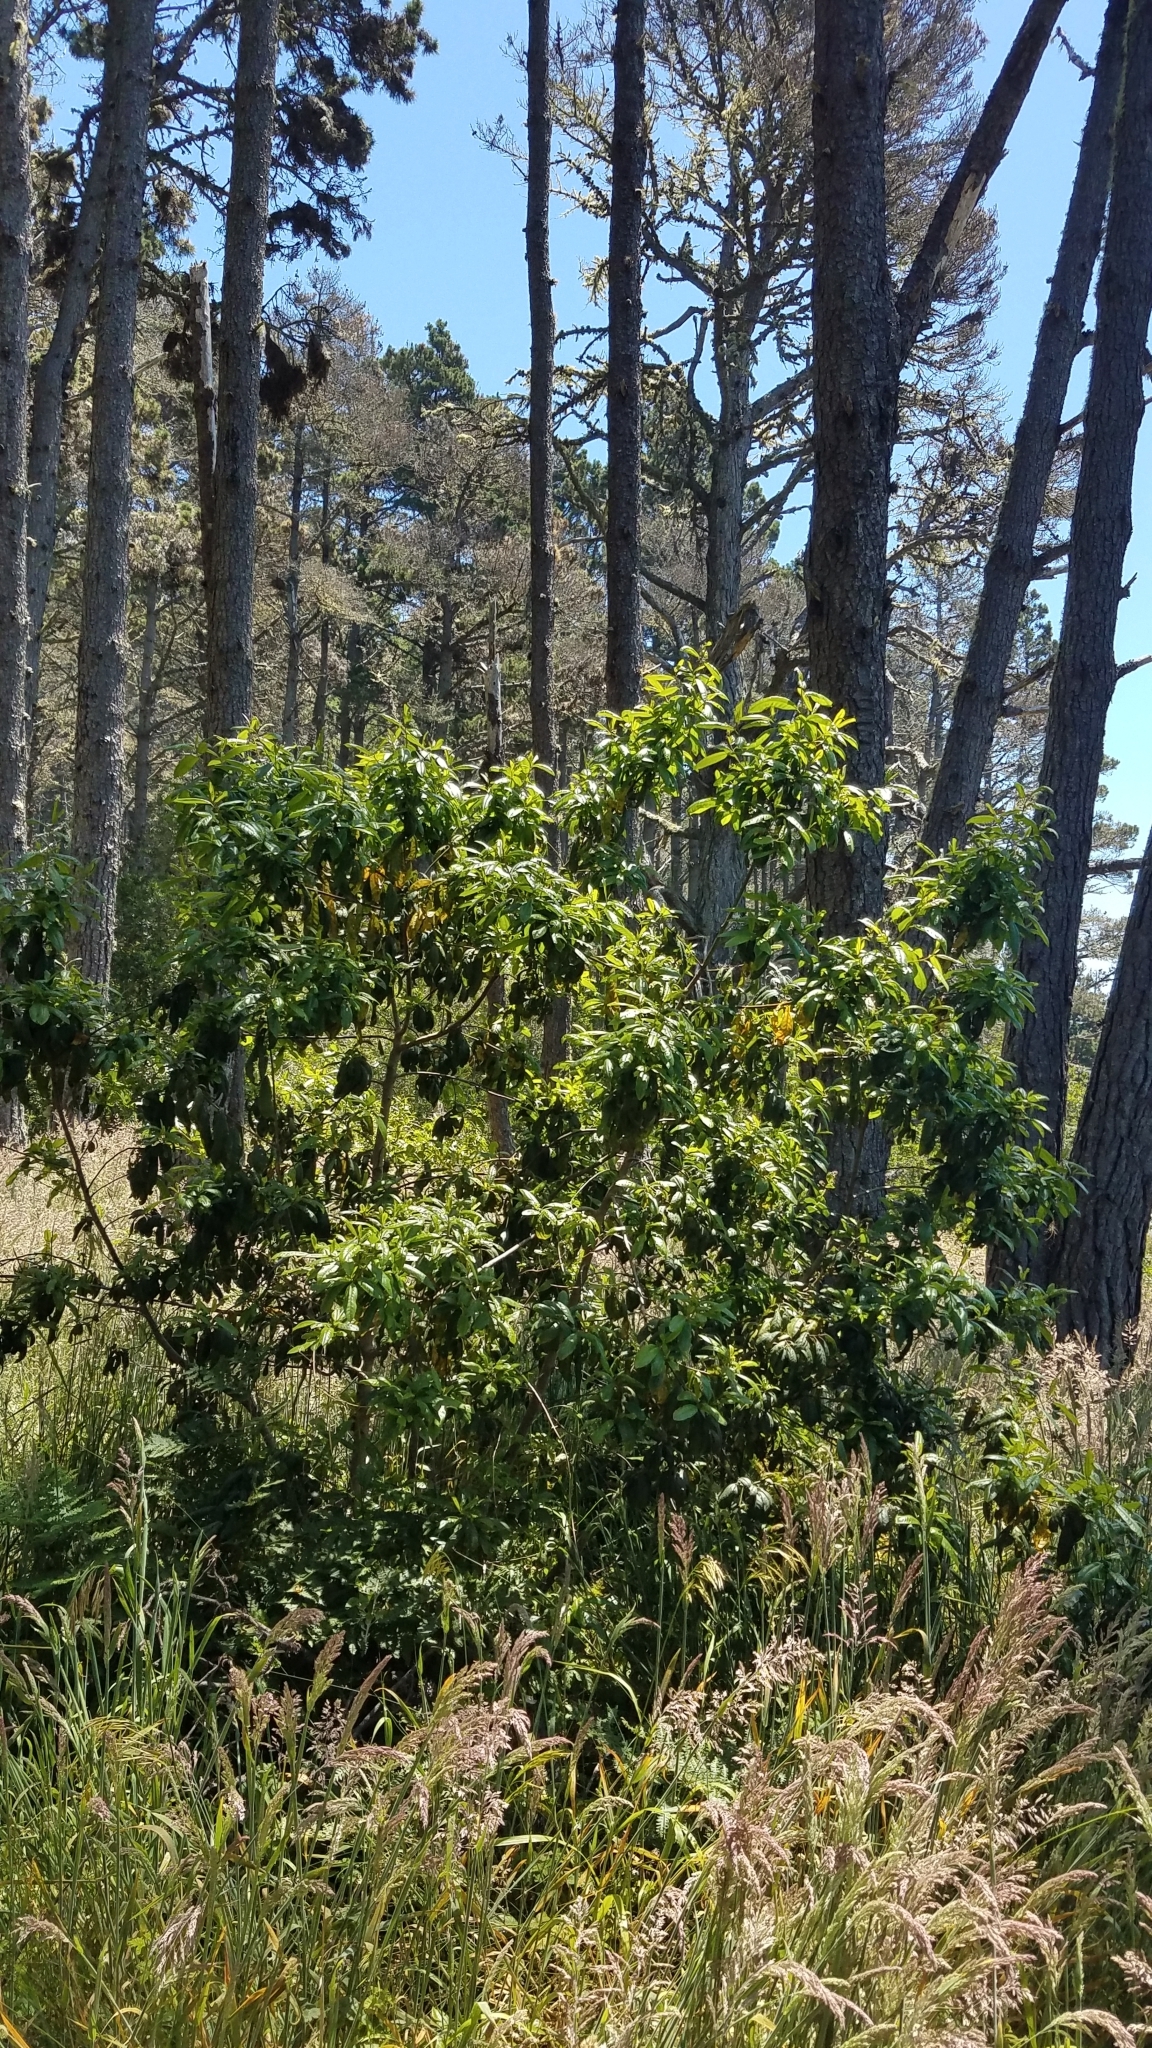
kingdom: Plantae
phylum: Tracheophyta
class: Magnoliopsida
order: Rosales
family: Rhamnaceae
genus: Frangula
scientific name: Frangula californica
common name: California buckthorn
